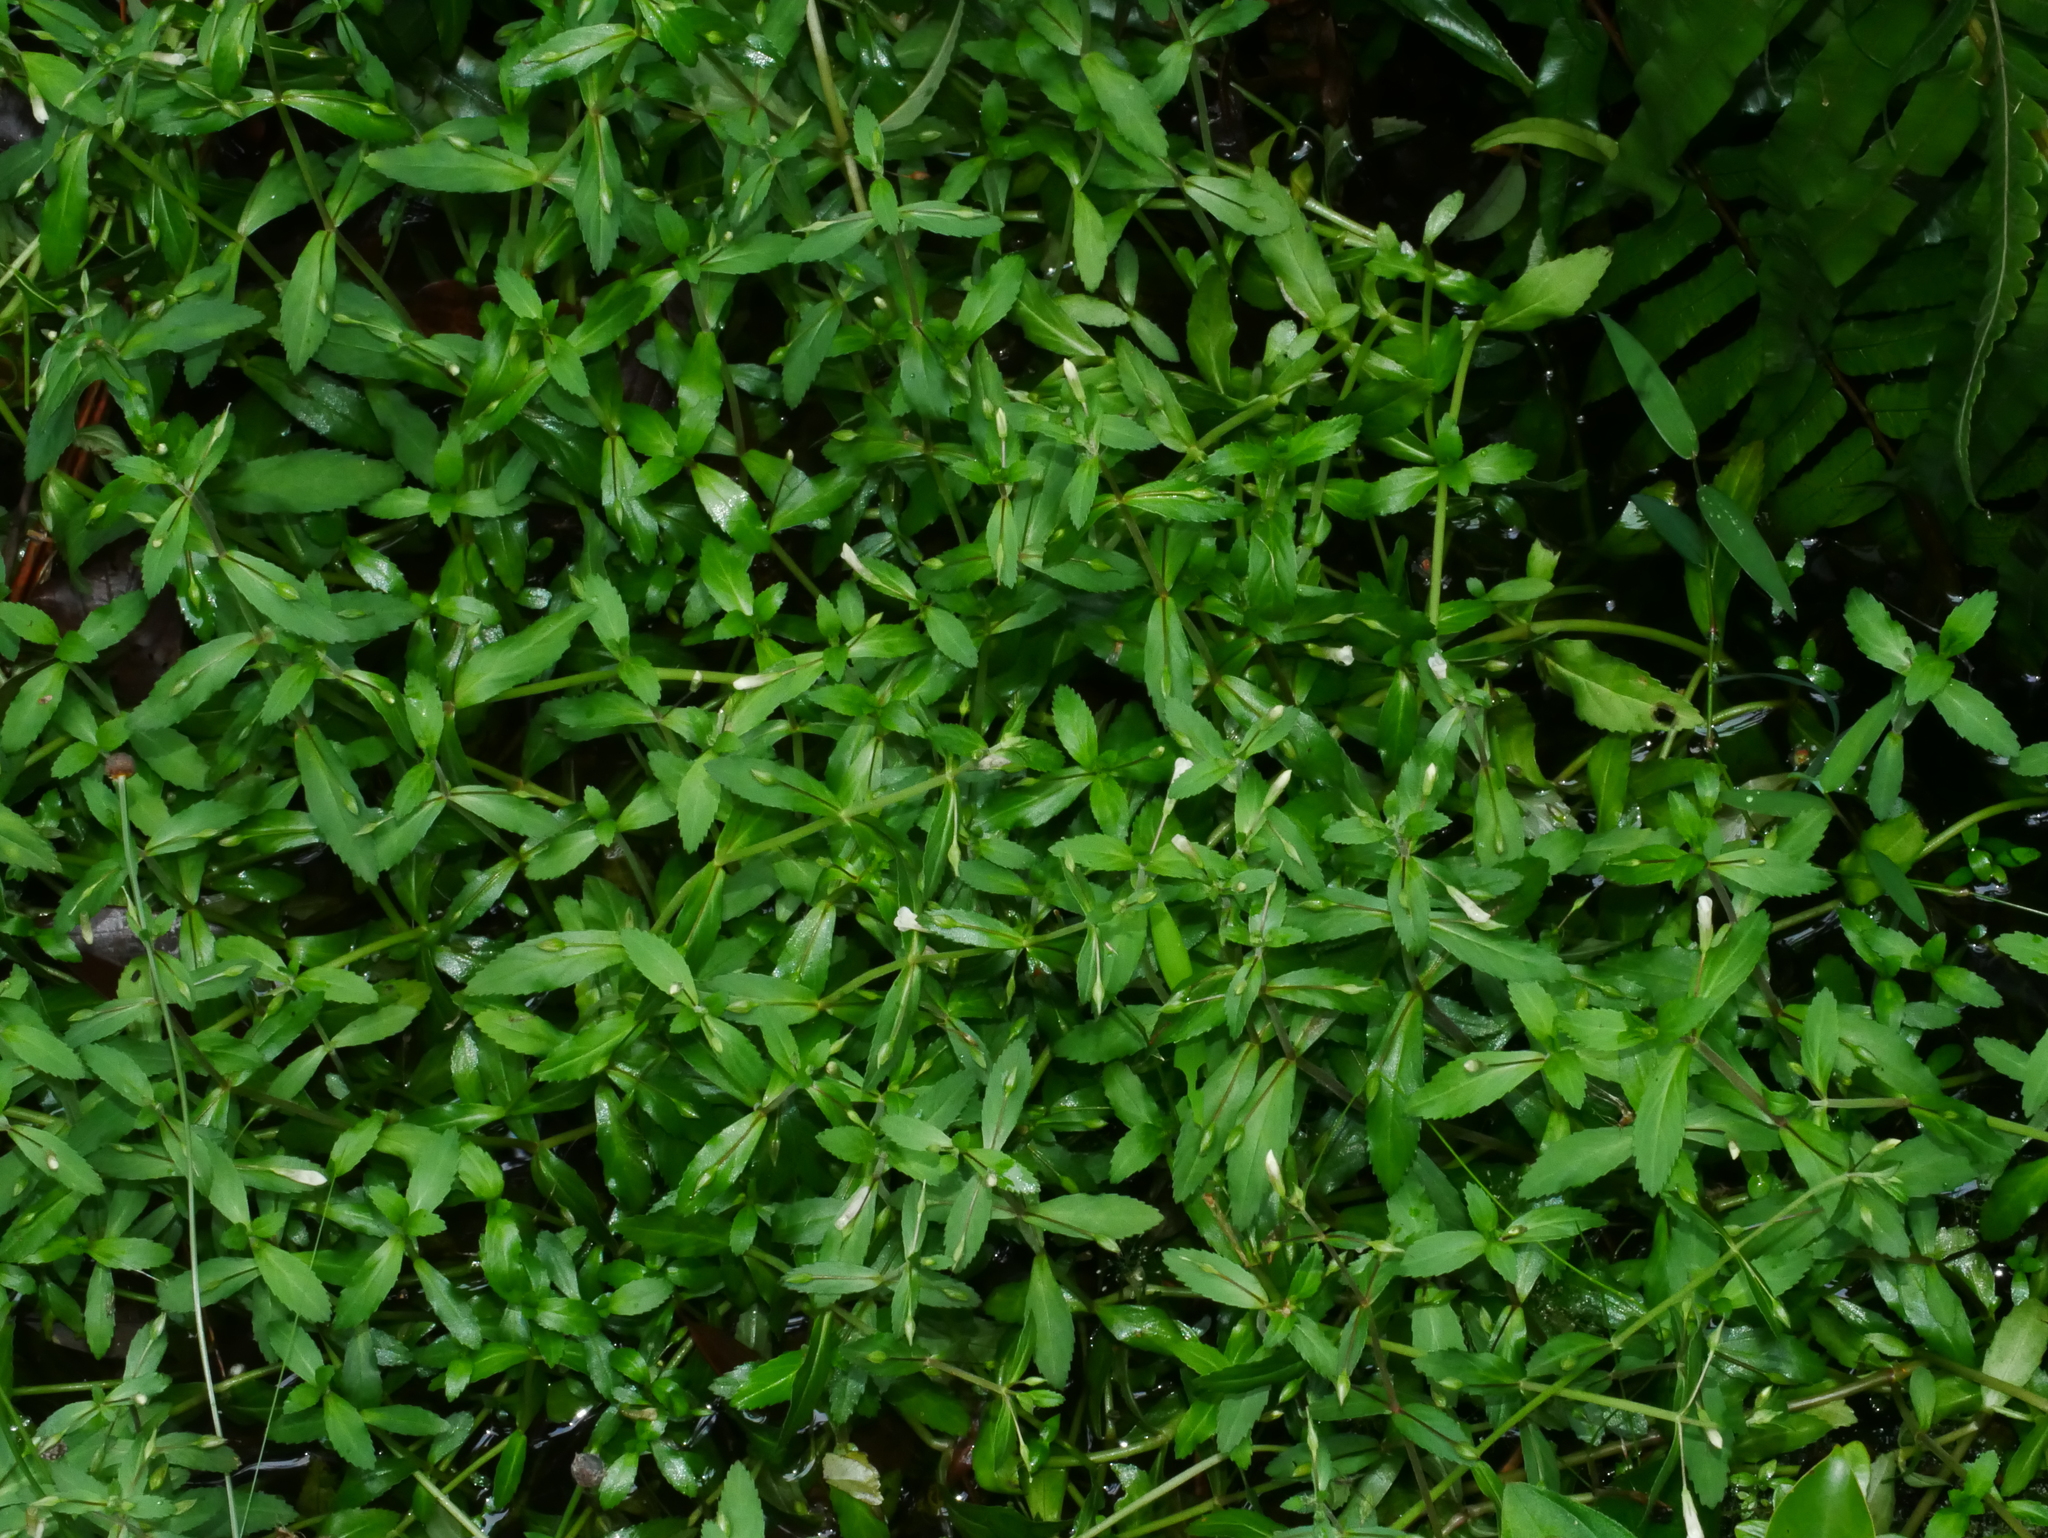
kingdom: Plantae
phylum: Tracheophyta
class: Magnoliopsida
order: Lamiales
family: Plantaginaceae
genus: Limnophila
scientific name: Limnophila aromatica
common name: Finger grass
